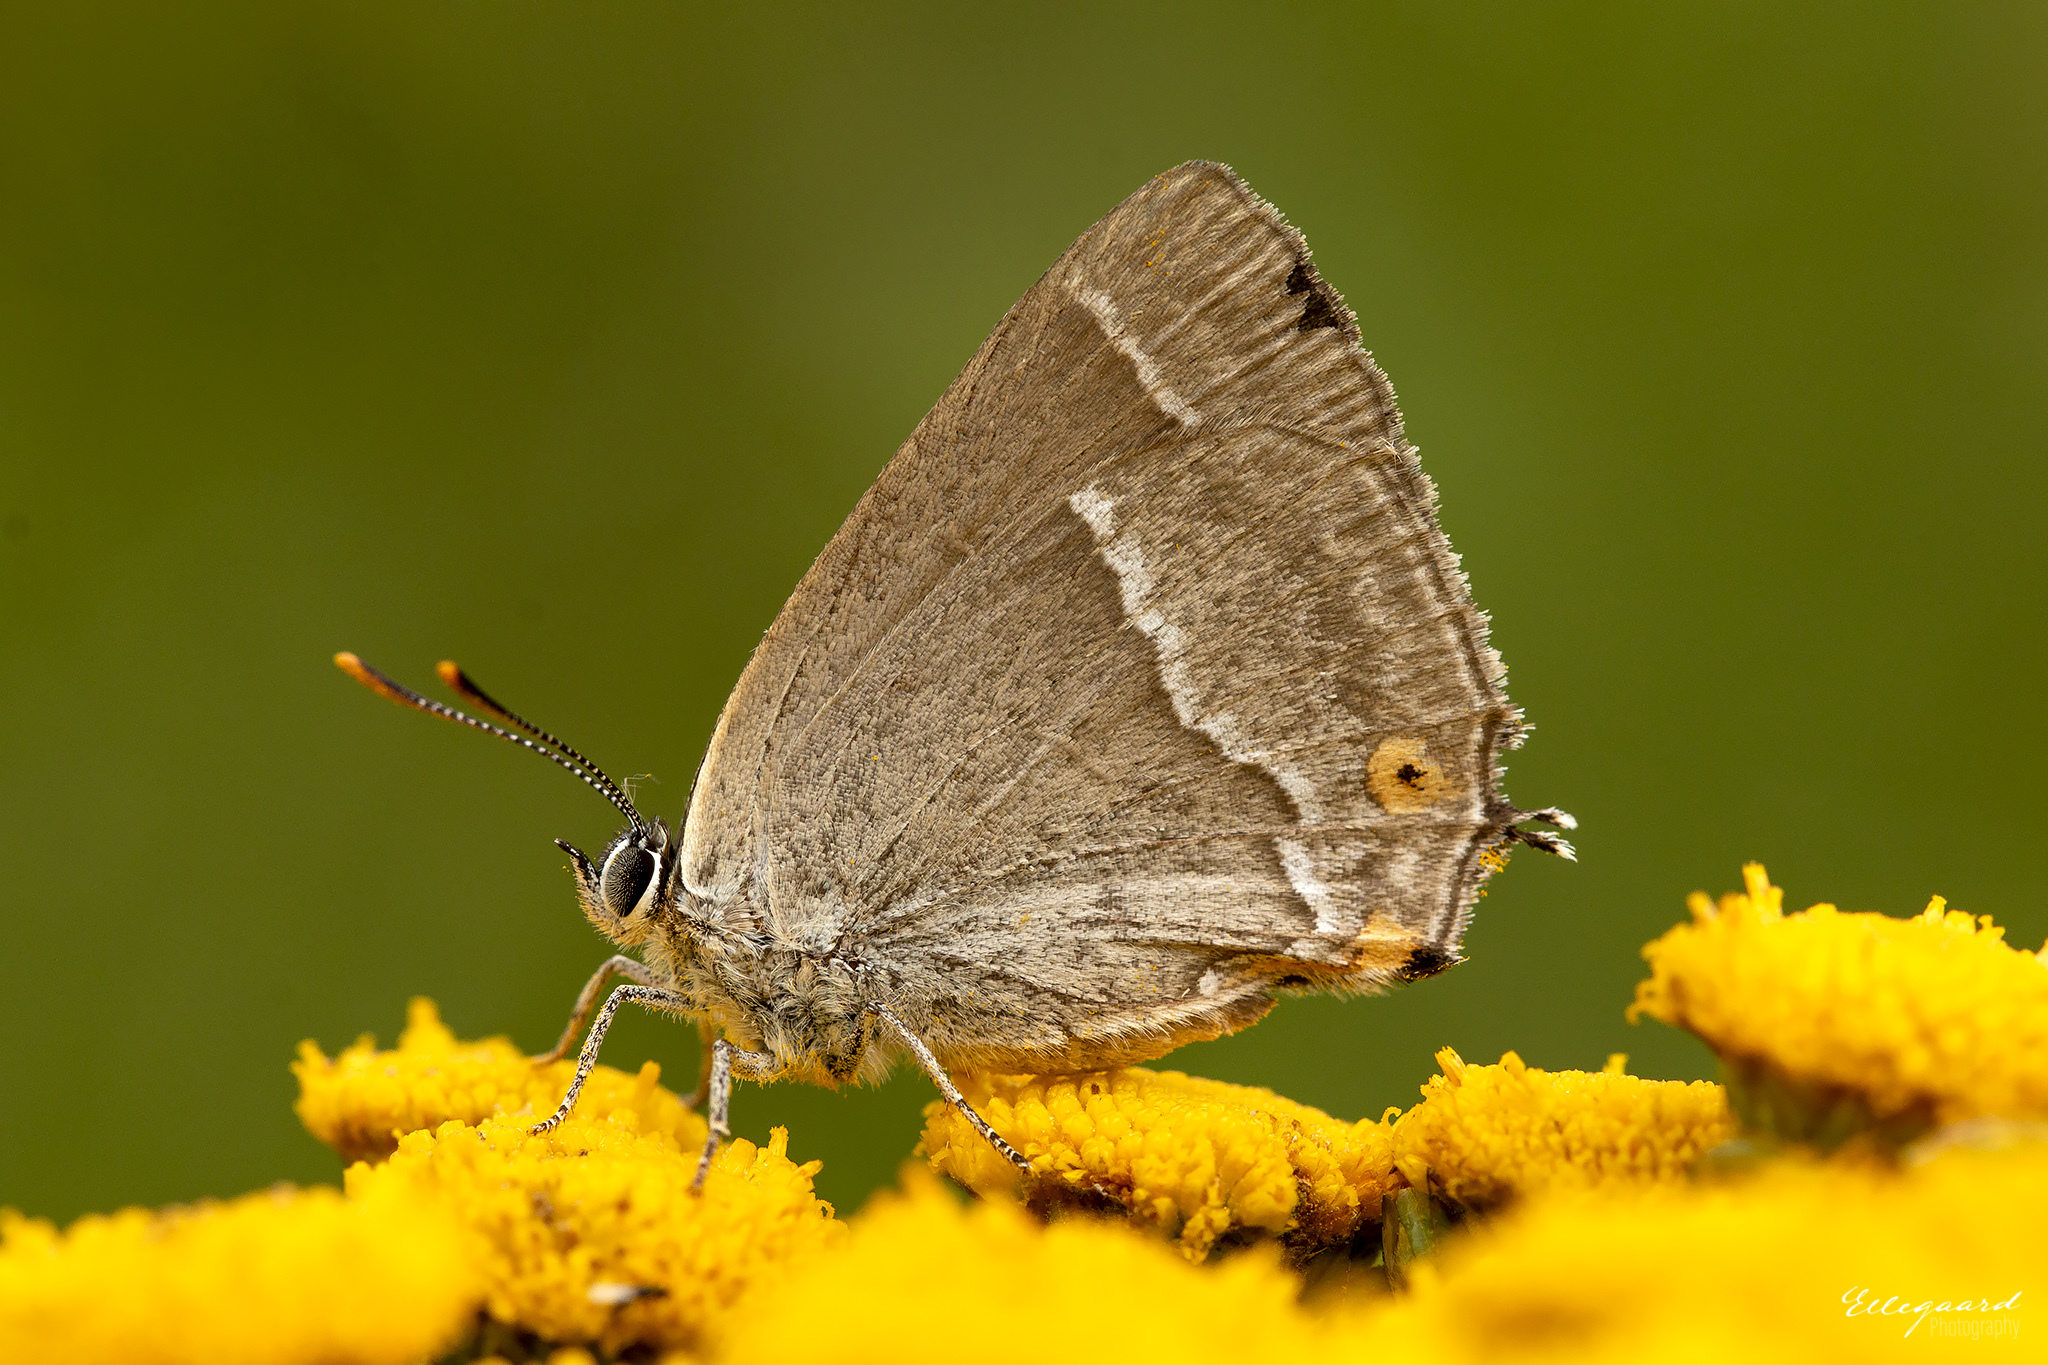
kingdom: Animalia
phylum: Arthropoda
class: Insecta
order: Lepidoptera
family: Lycaenidae
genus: Quercusia
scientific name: Quercusia quercus
